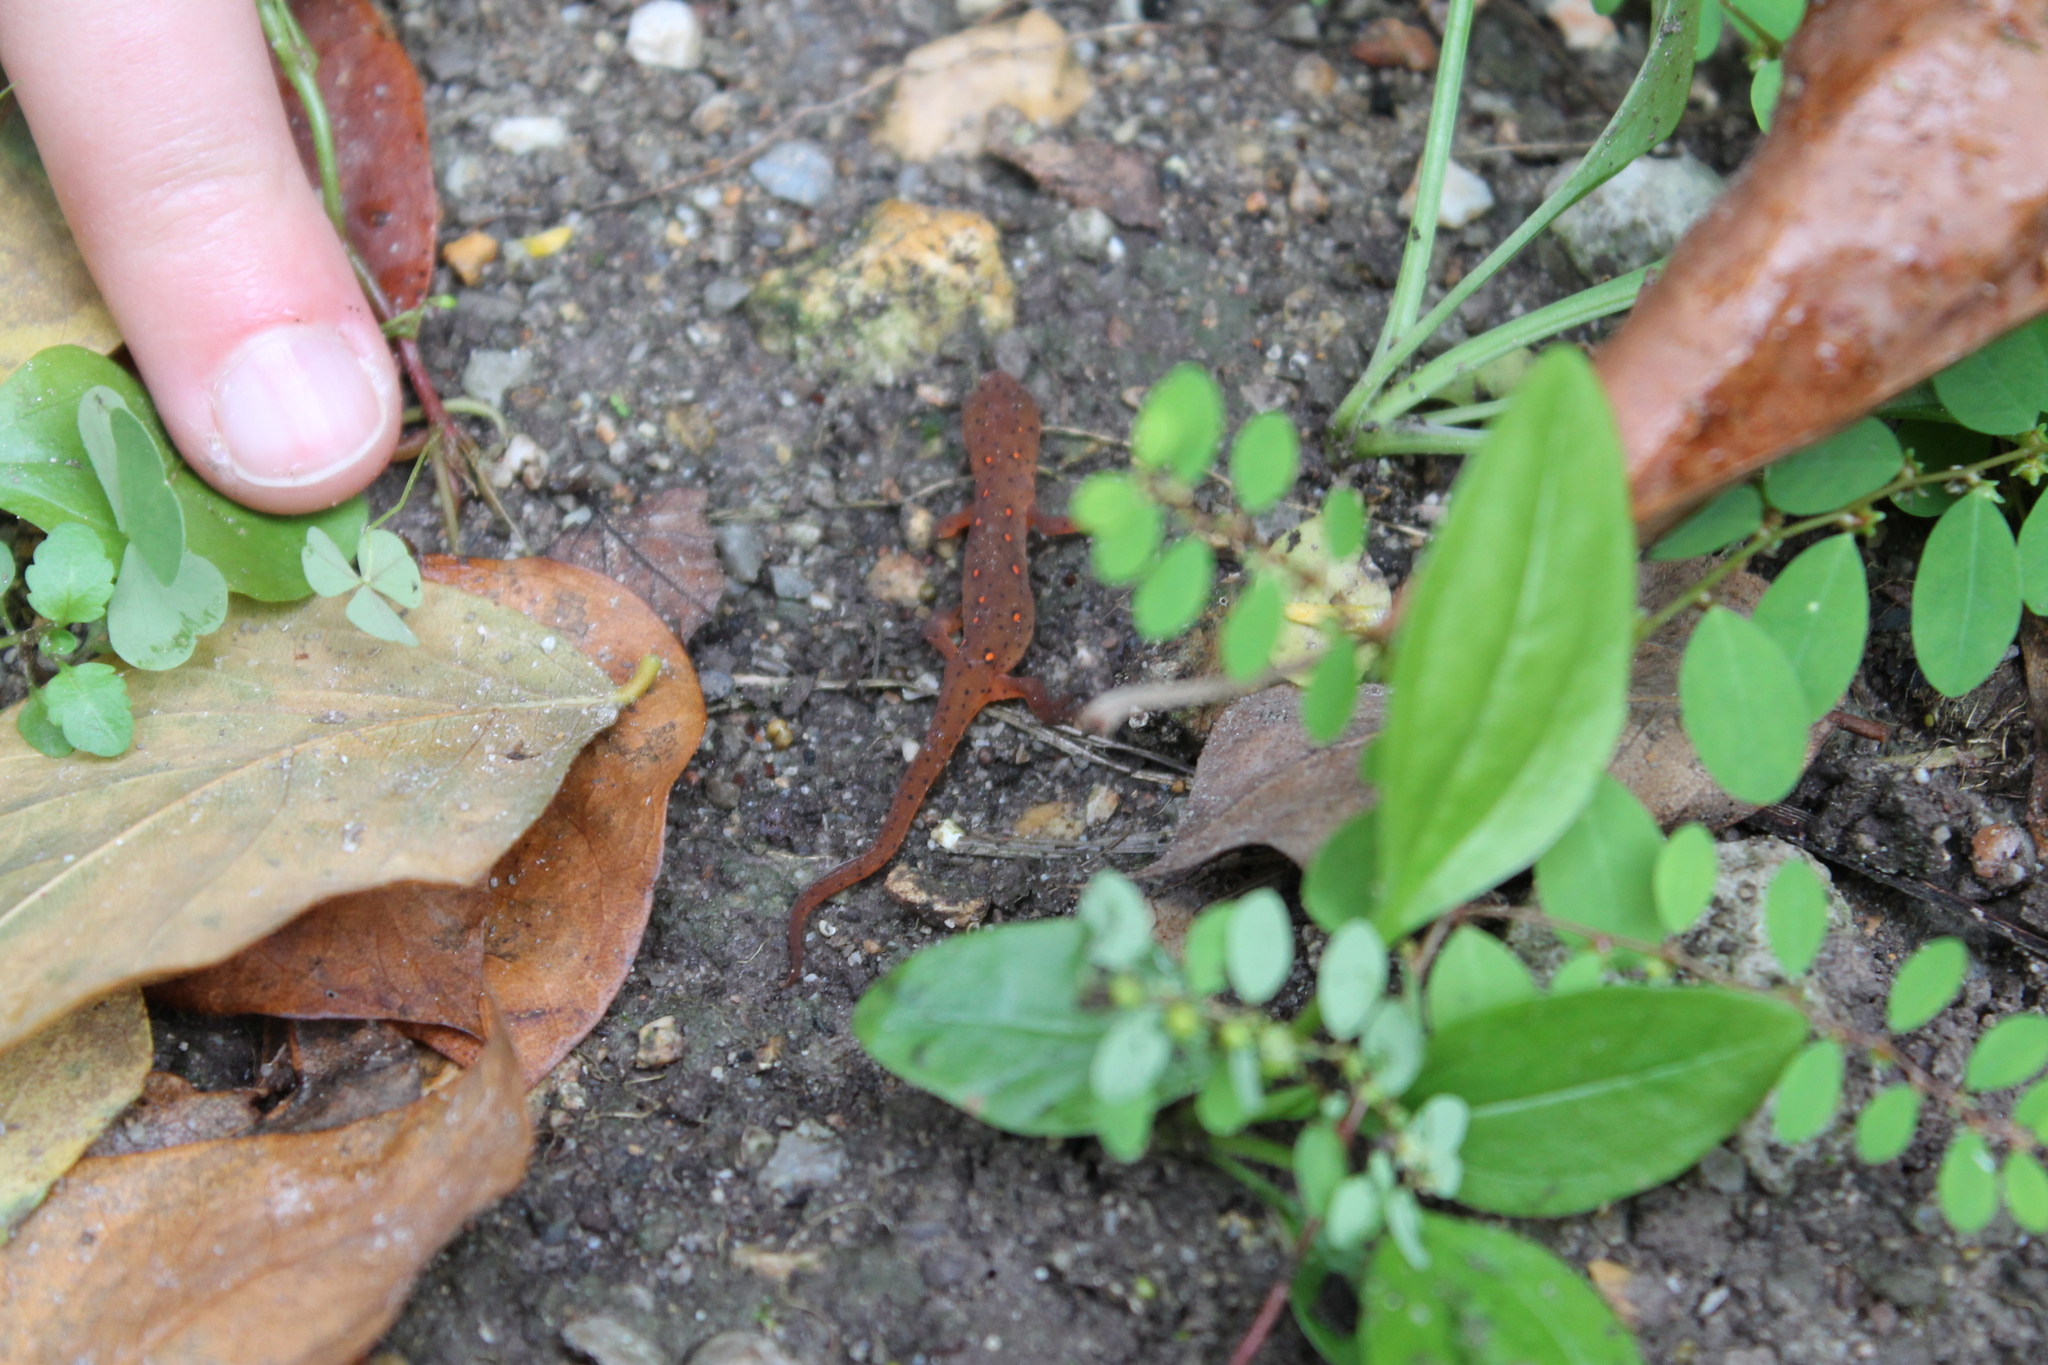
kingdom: Animalia
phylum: Chordata
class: Amphibia
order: Caudata
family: Salamandridae
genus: Notophthalmus
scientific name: Notophthalmus viridescens
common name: Eastern newt
